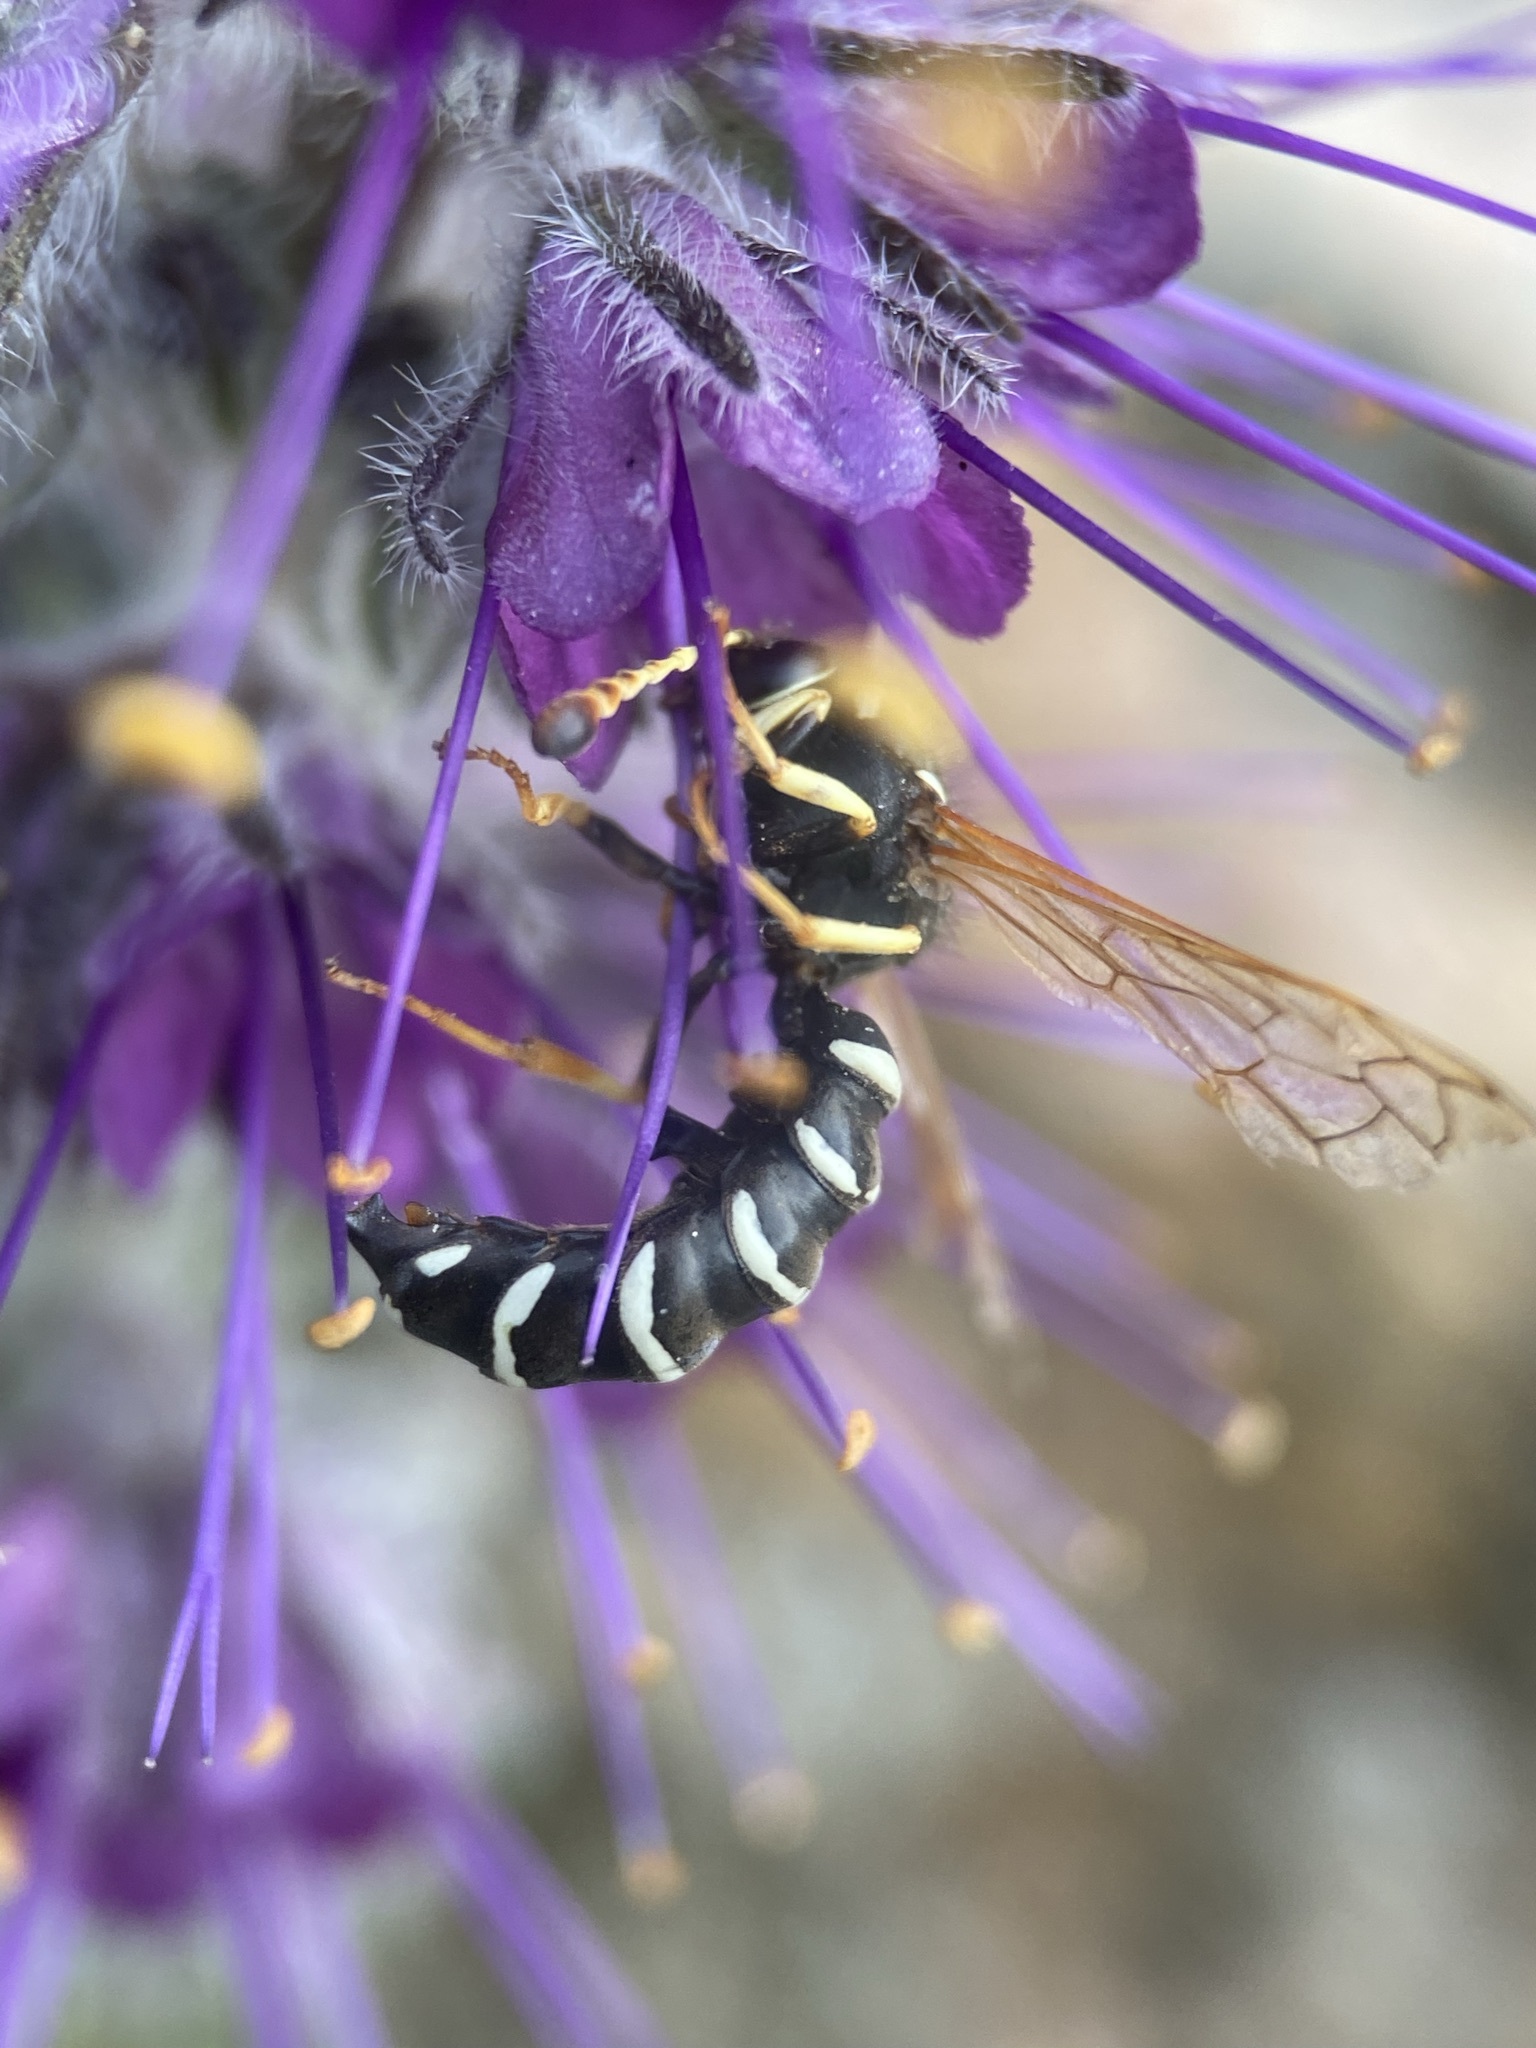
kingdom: Animalia
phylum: Arthropoda
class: Insecta
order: Hymenoptera
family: Masaridae
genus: Pseudomasaris
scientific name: Pseudomasaris marginalis
